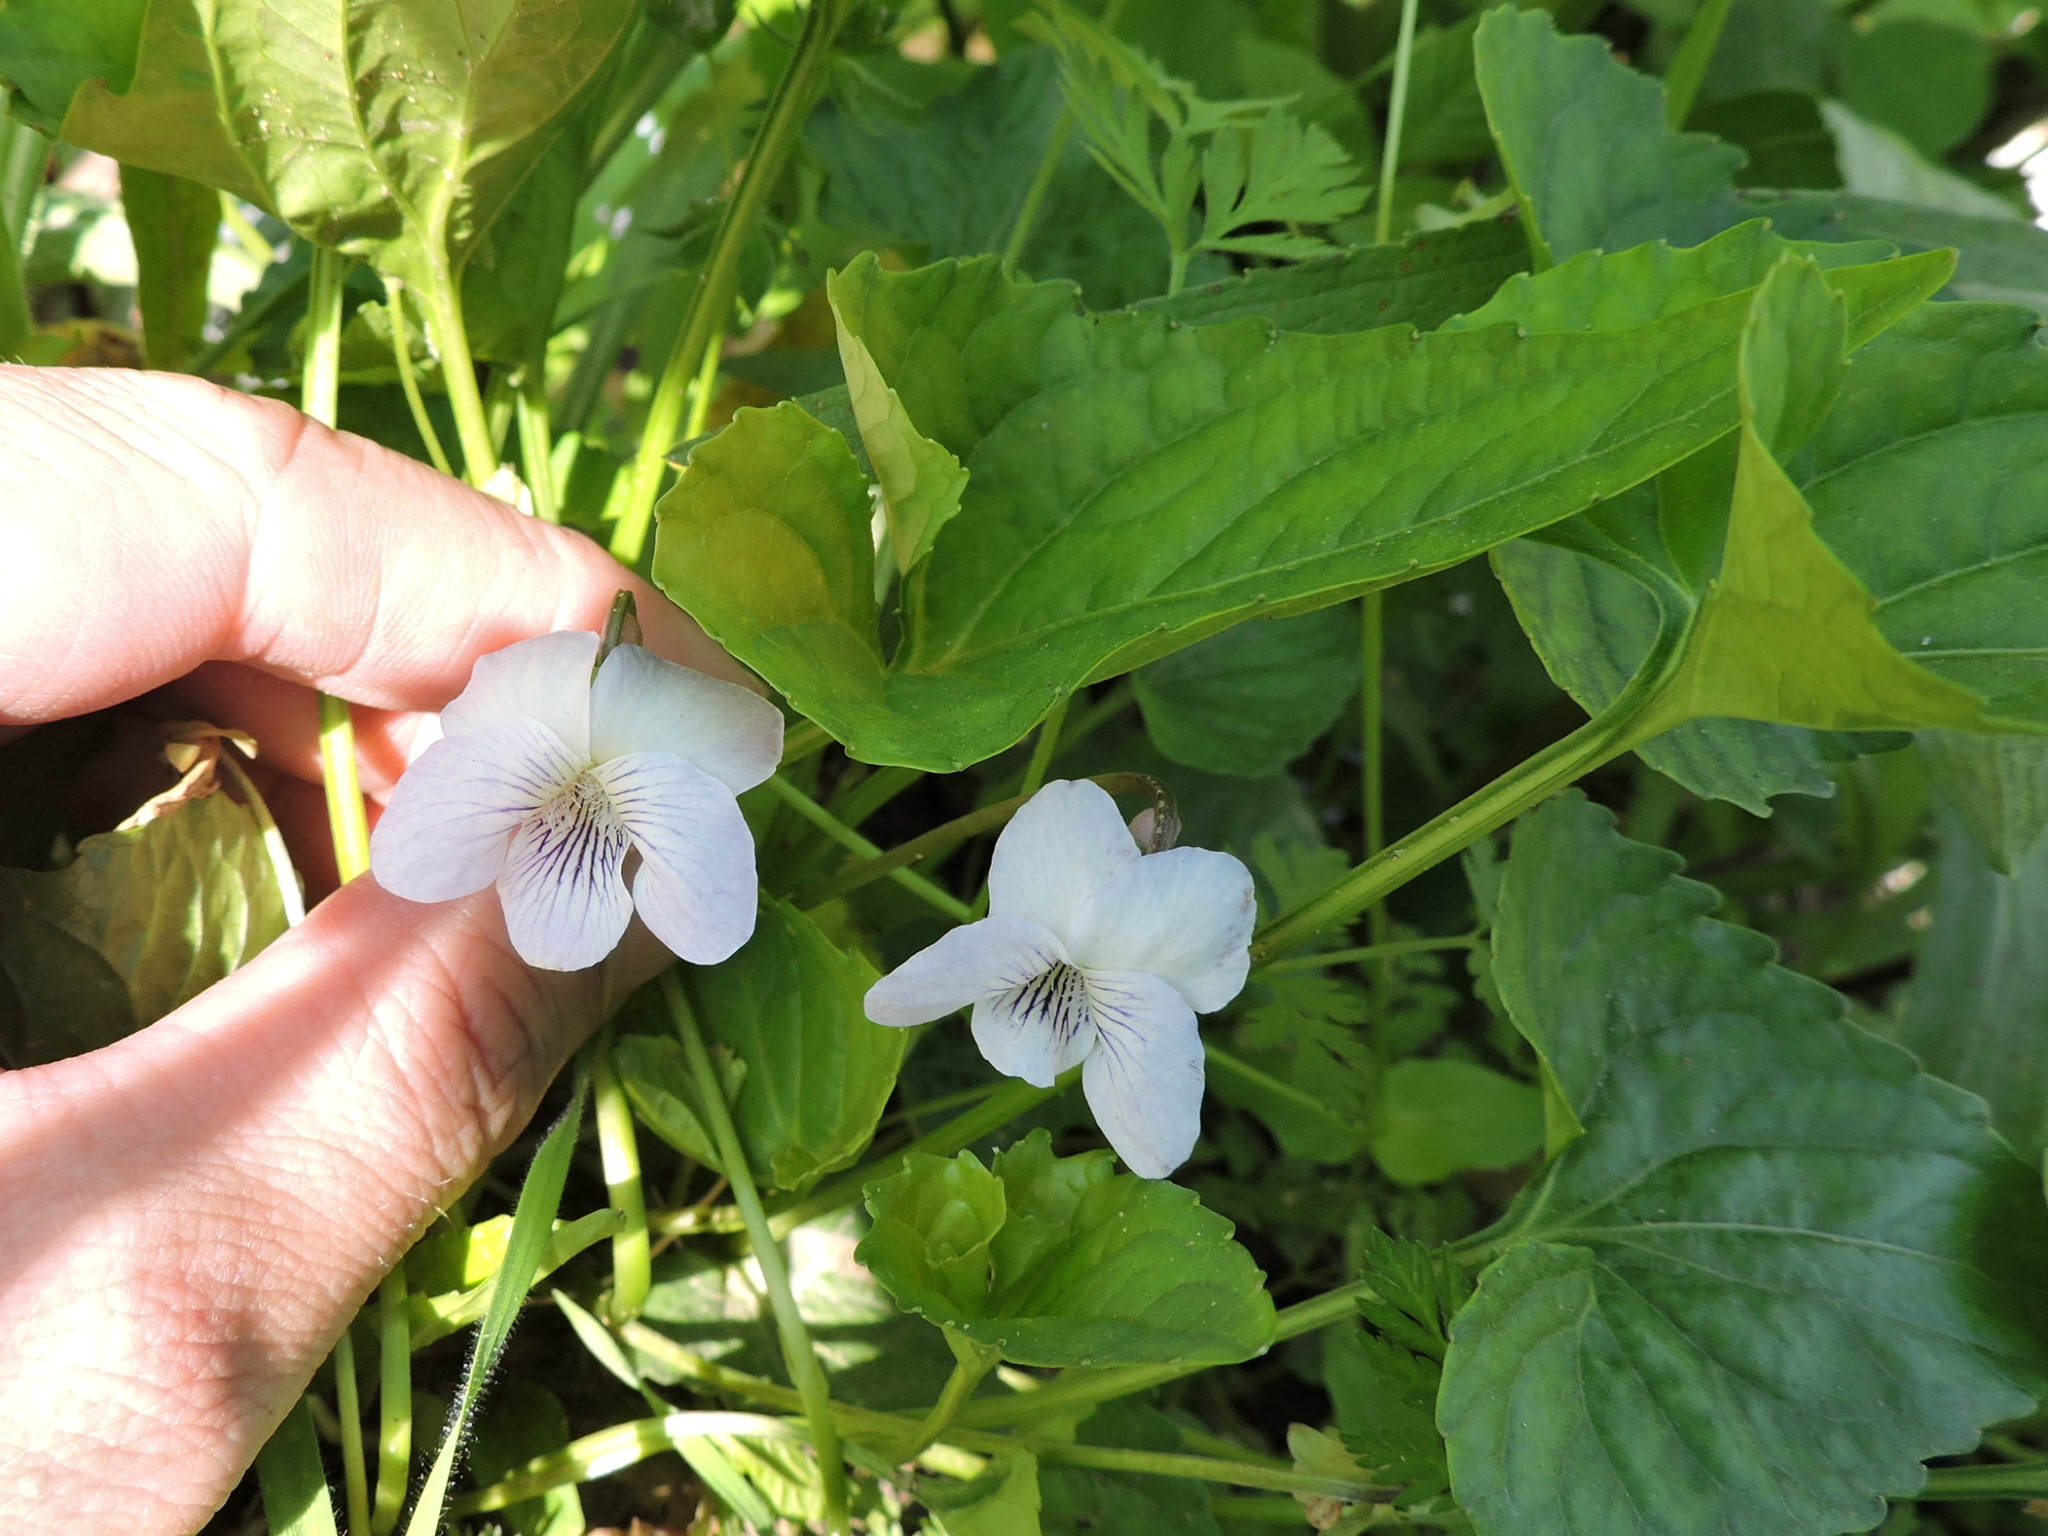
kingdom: Plantae
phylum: Tracheophyta
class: Magnoliopsida
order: Malpighiales
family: Violaceae
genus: Viola
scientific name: Viola missouriensis
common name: Missouri violet
